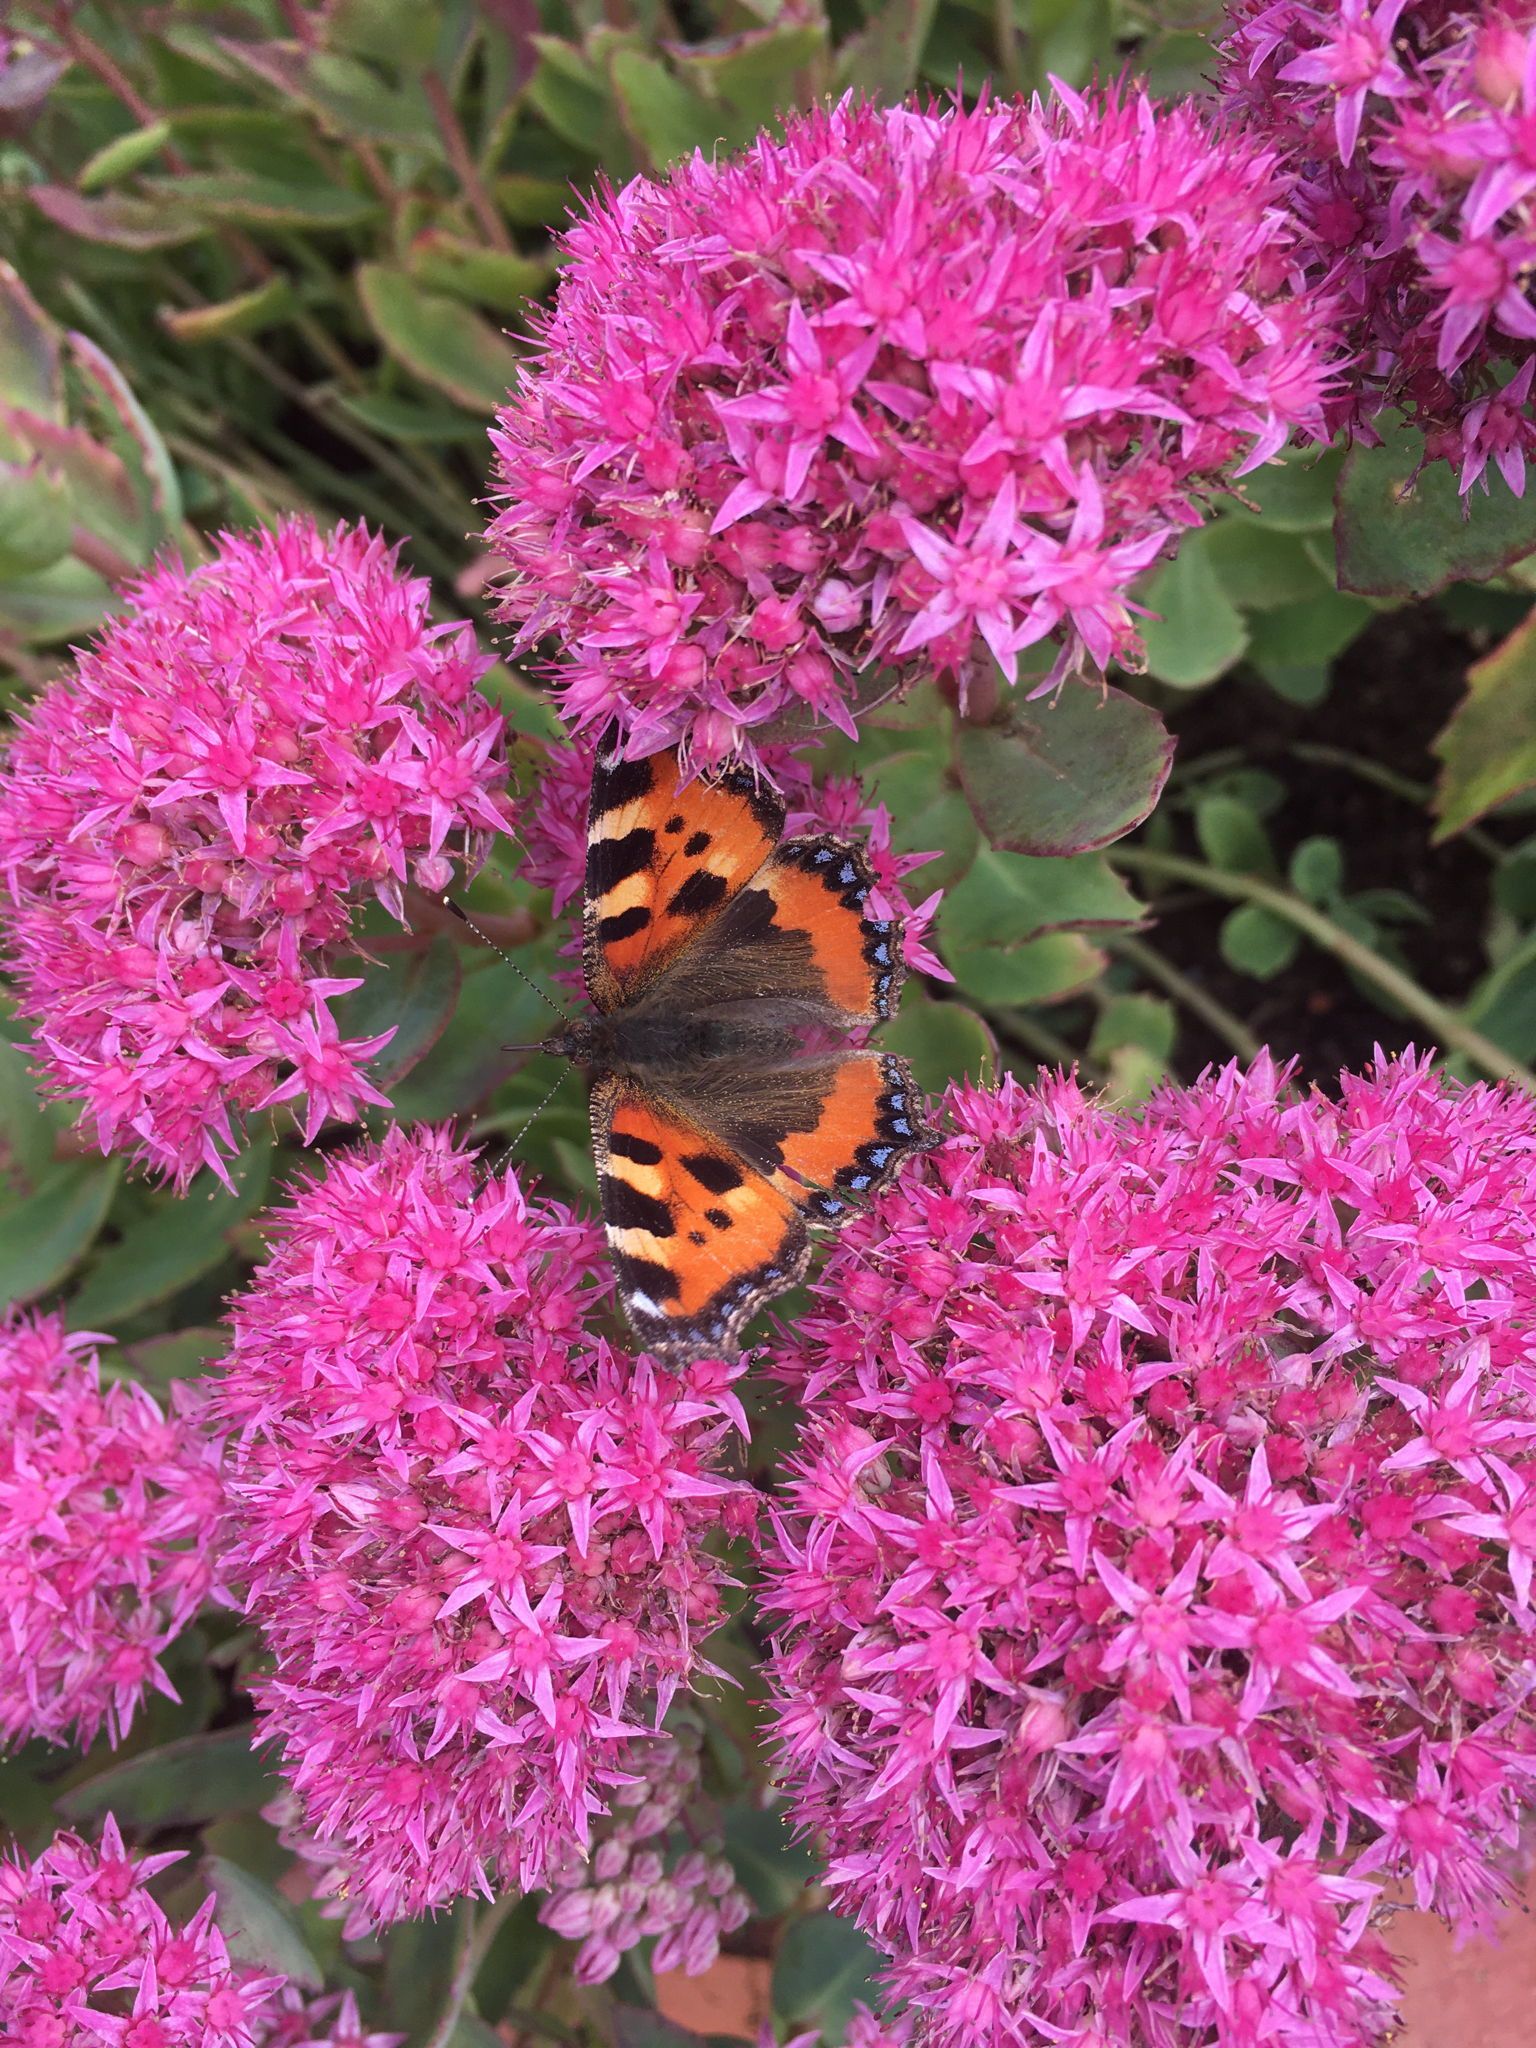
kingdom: Animalia
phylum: Arthropoda
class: Insecta
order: Lepidoptera
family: Nymphalidae
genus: Aglais
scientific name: Aglais urticae
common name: Small tortoiseshell
